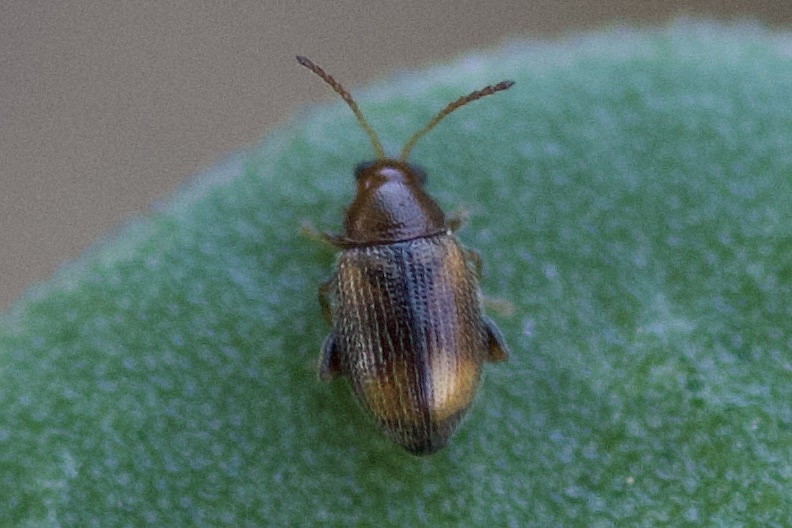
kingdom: Animalia
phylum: Arthropoda
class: Insecta
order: Coleoptera
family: Chrysomelidae
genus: Epitrix
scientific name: Epitrix fasciata
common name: Leaf beetle
